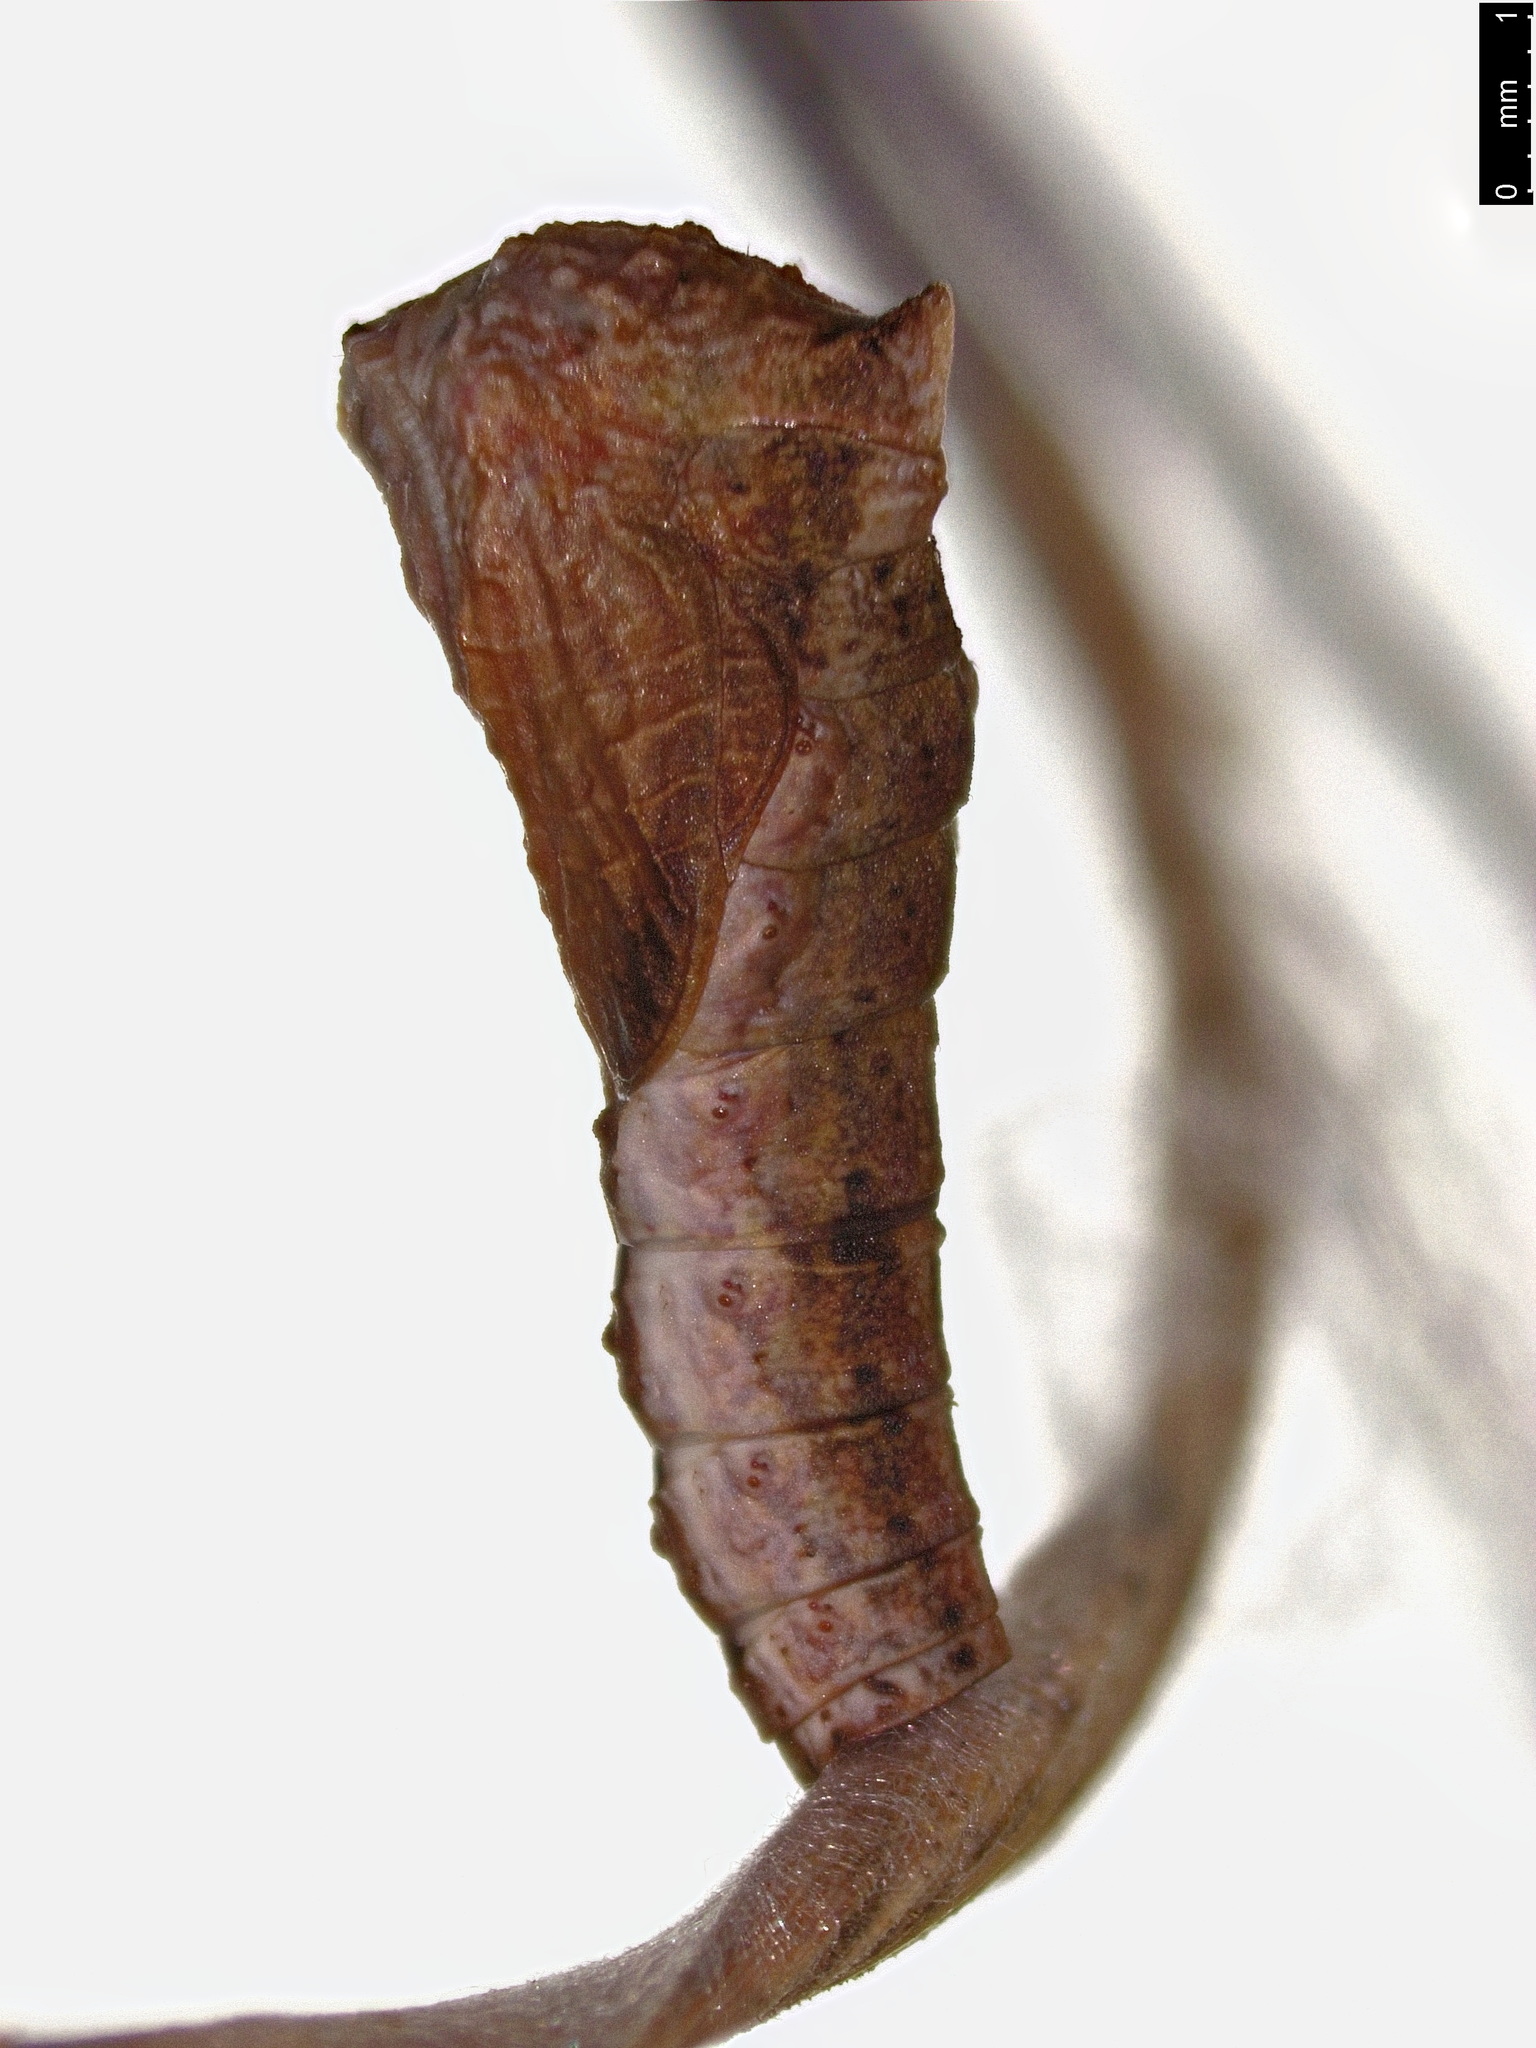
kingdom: Animalia
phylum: Arthropoda
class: Insecta
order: Lepidoptera
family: Depressariidae
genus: Peritropha
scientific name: Peritropha oligodrachma
